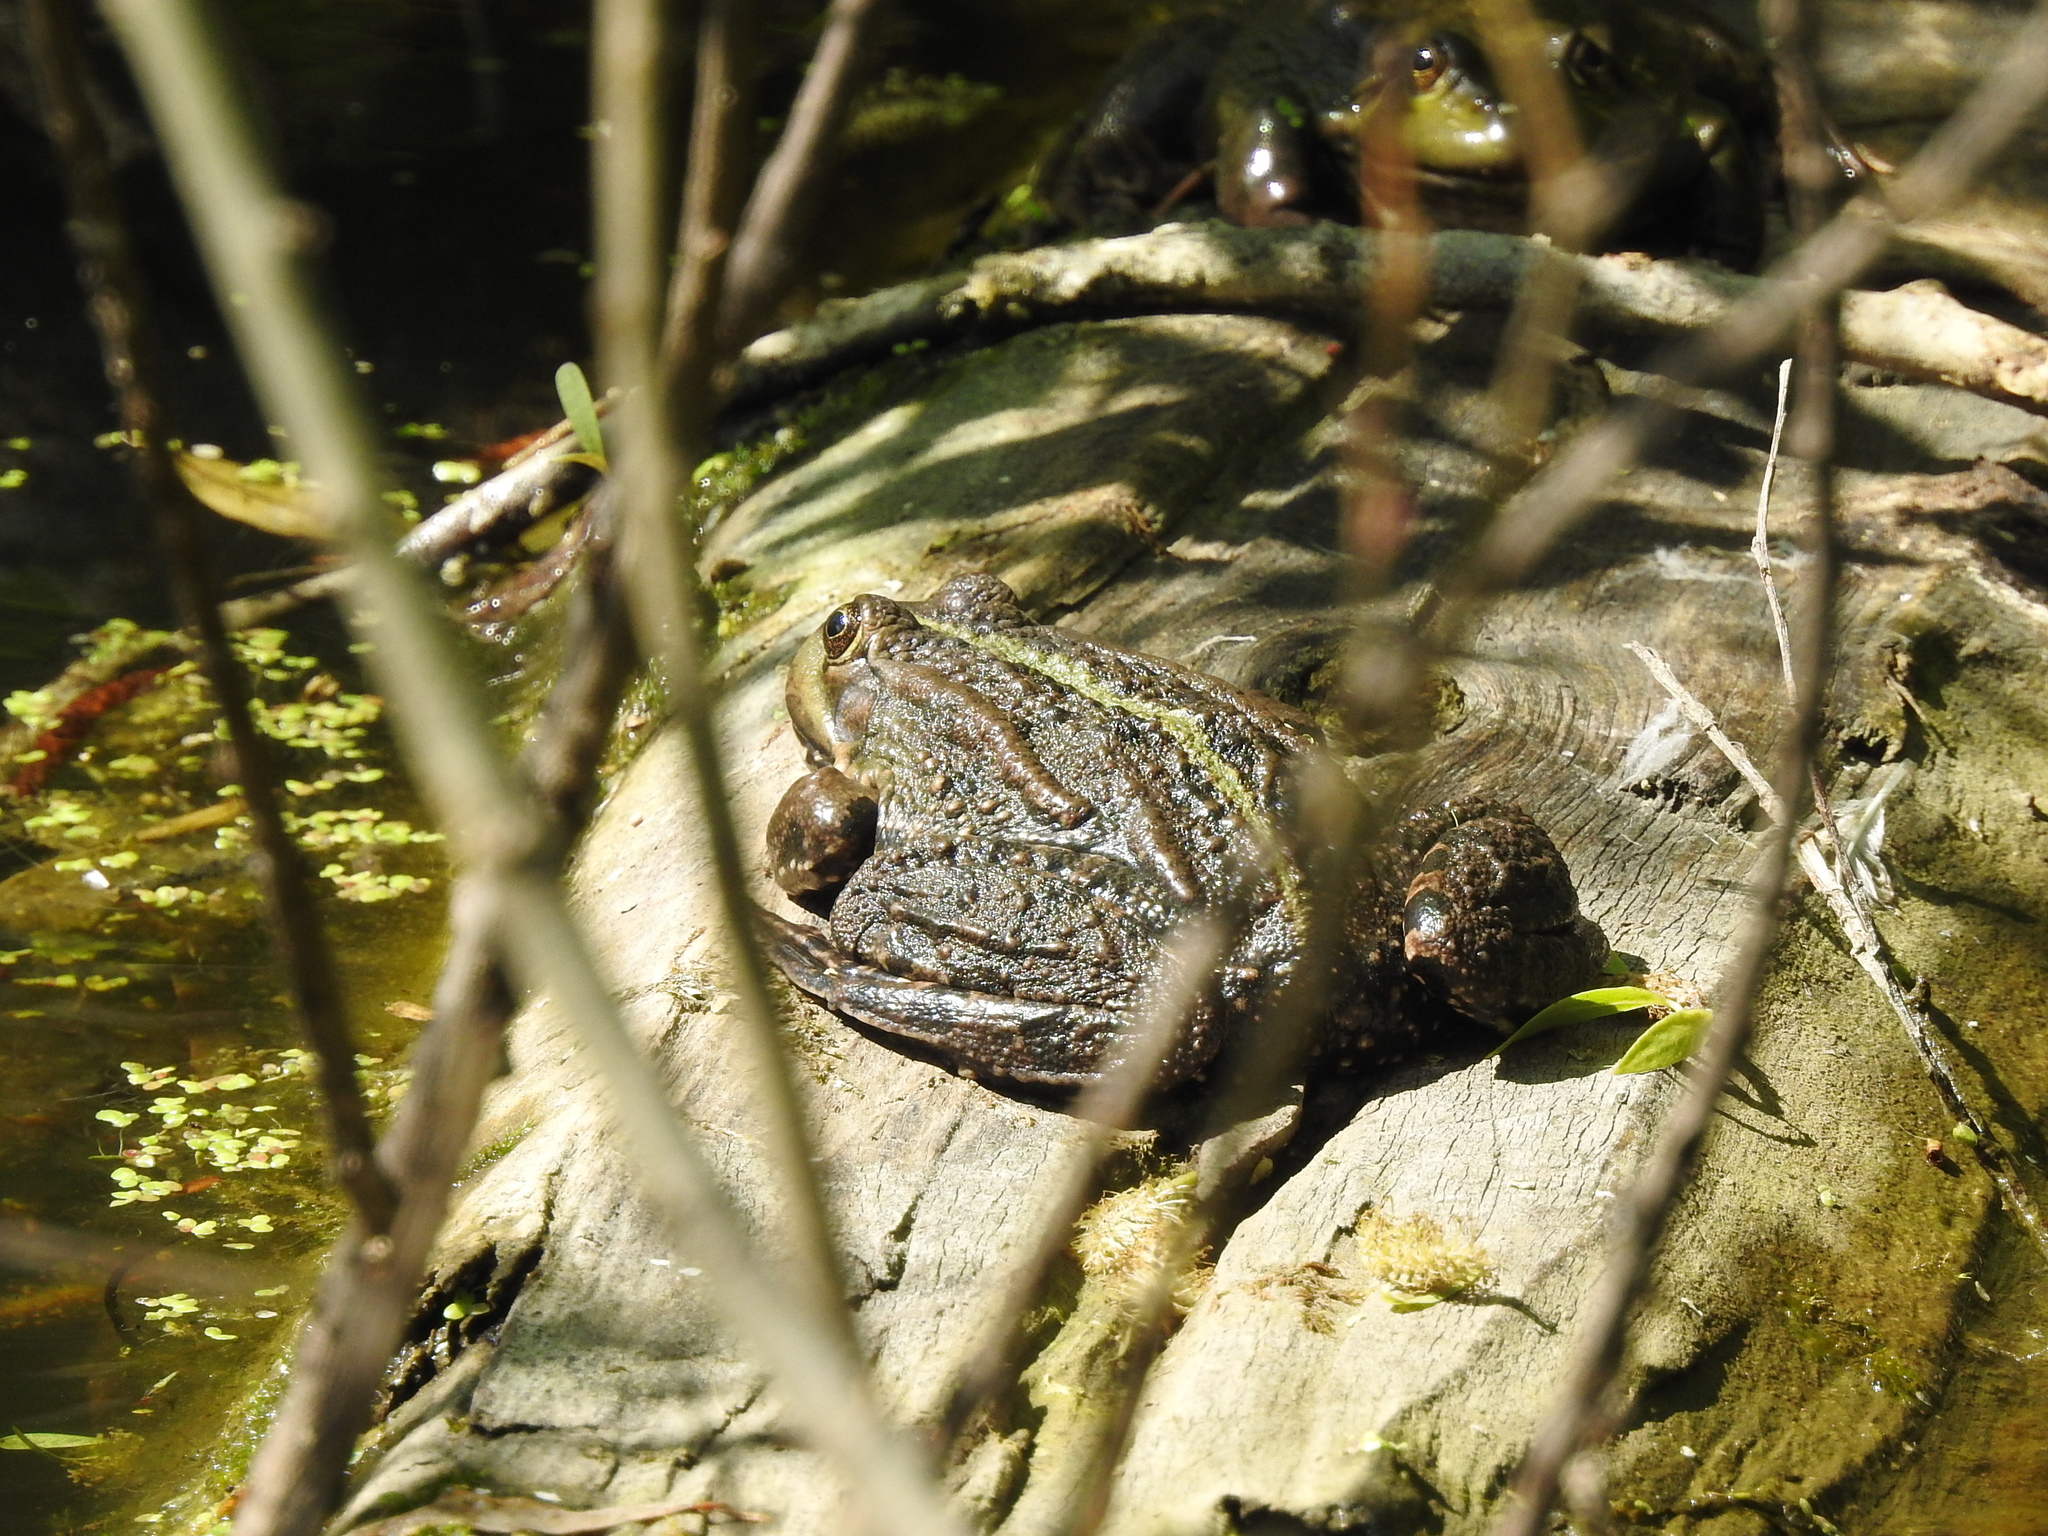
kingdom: Animalia
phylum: Chordata
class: Amphibia
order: Anura
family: Ranidae
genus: Pelophylax
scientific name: Pelophylax ridibundus
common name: Marsh frog
